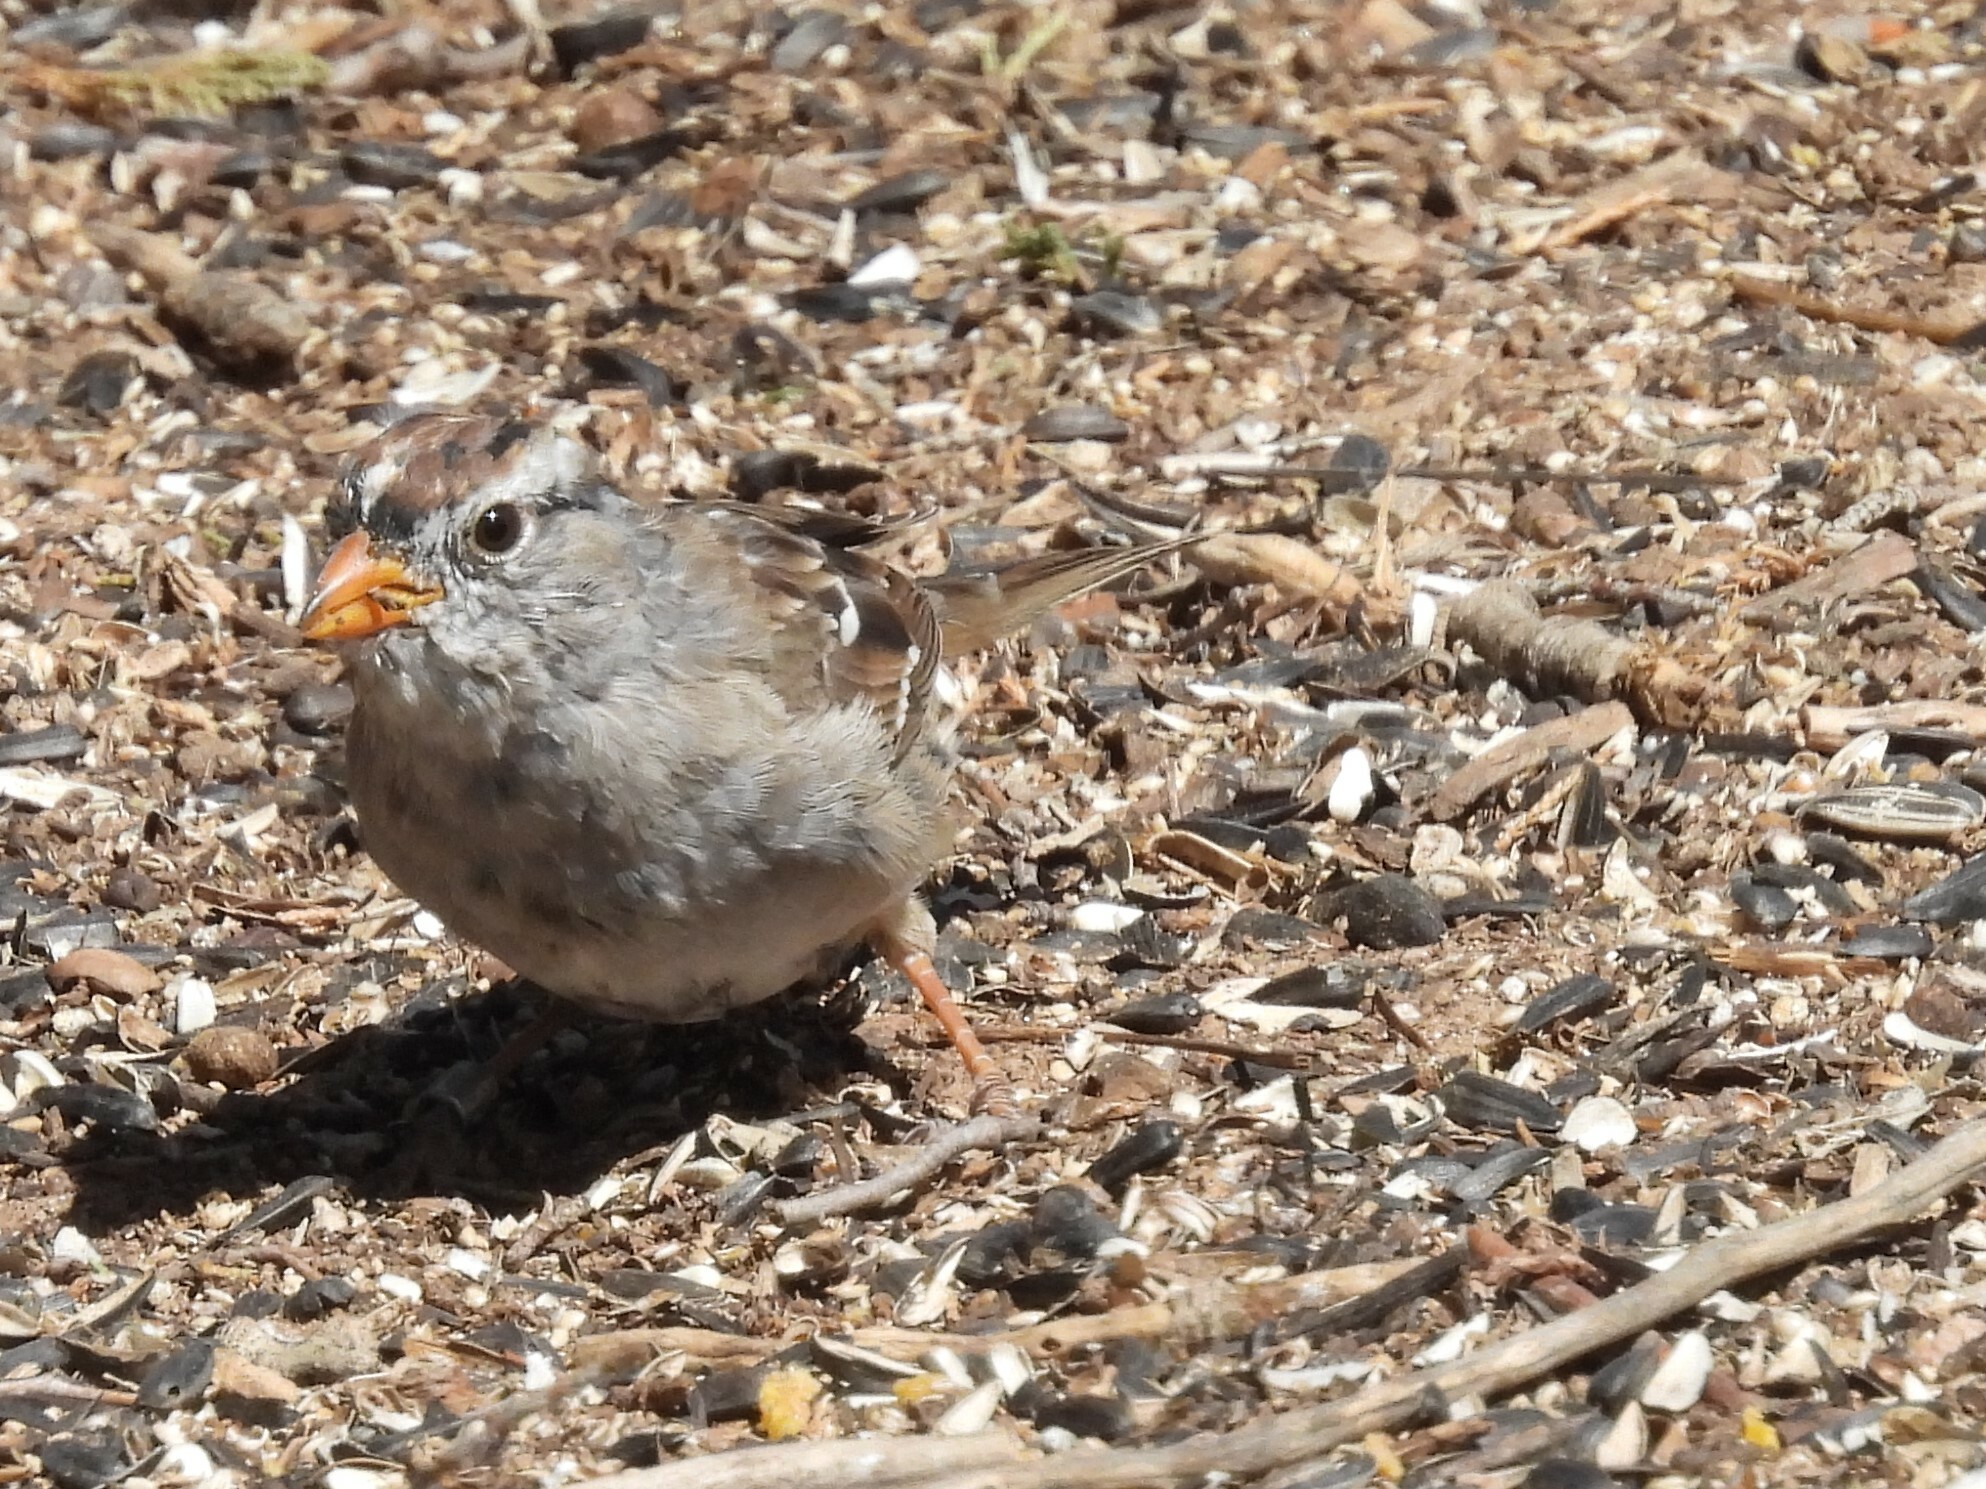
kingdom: Animalia
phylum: Chordata
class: Aves
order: Passeriformes
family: Passerellidae
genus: Zonotrichia
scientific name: Zonotrichia leucophrys
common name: White-crowned sparrow
